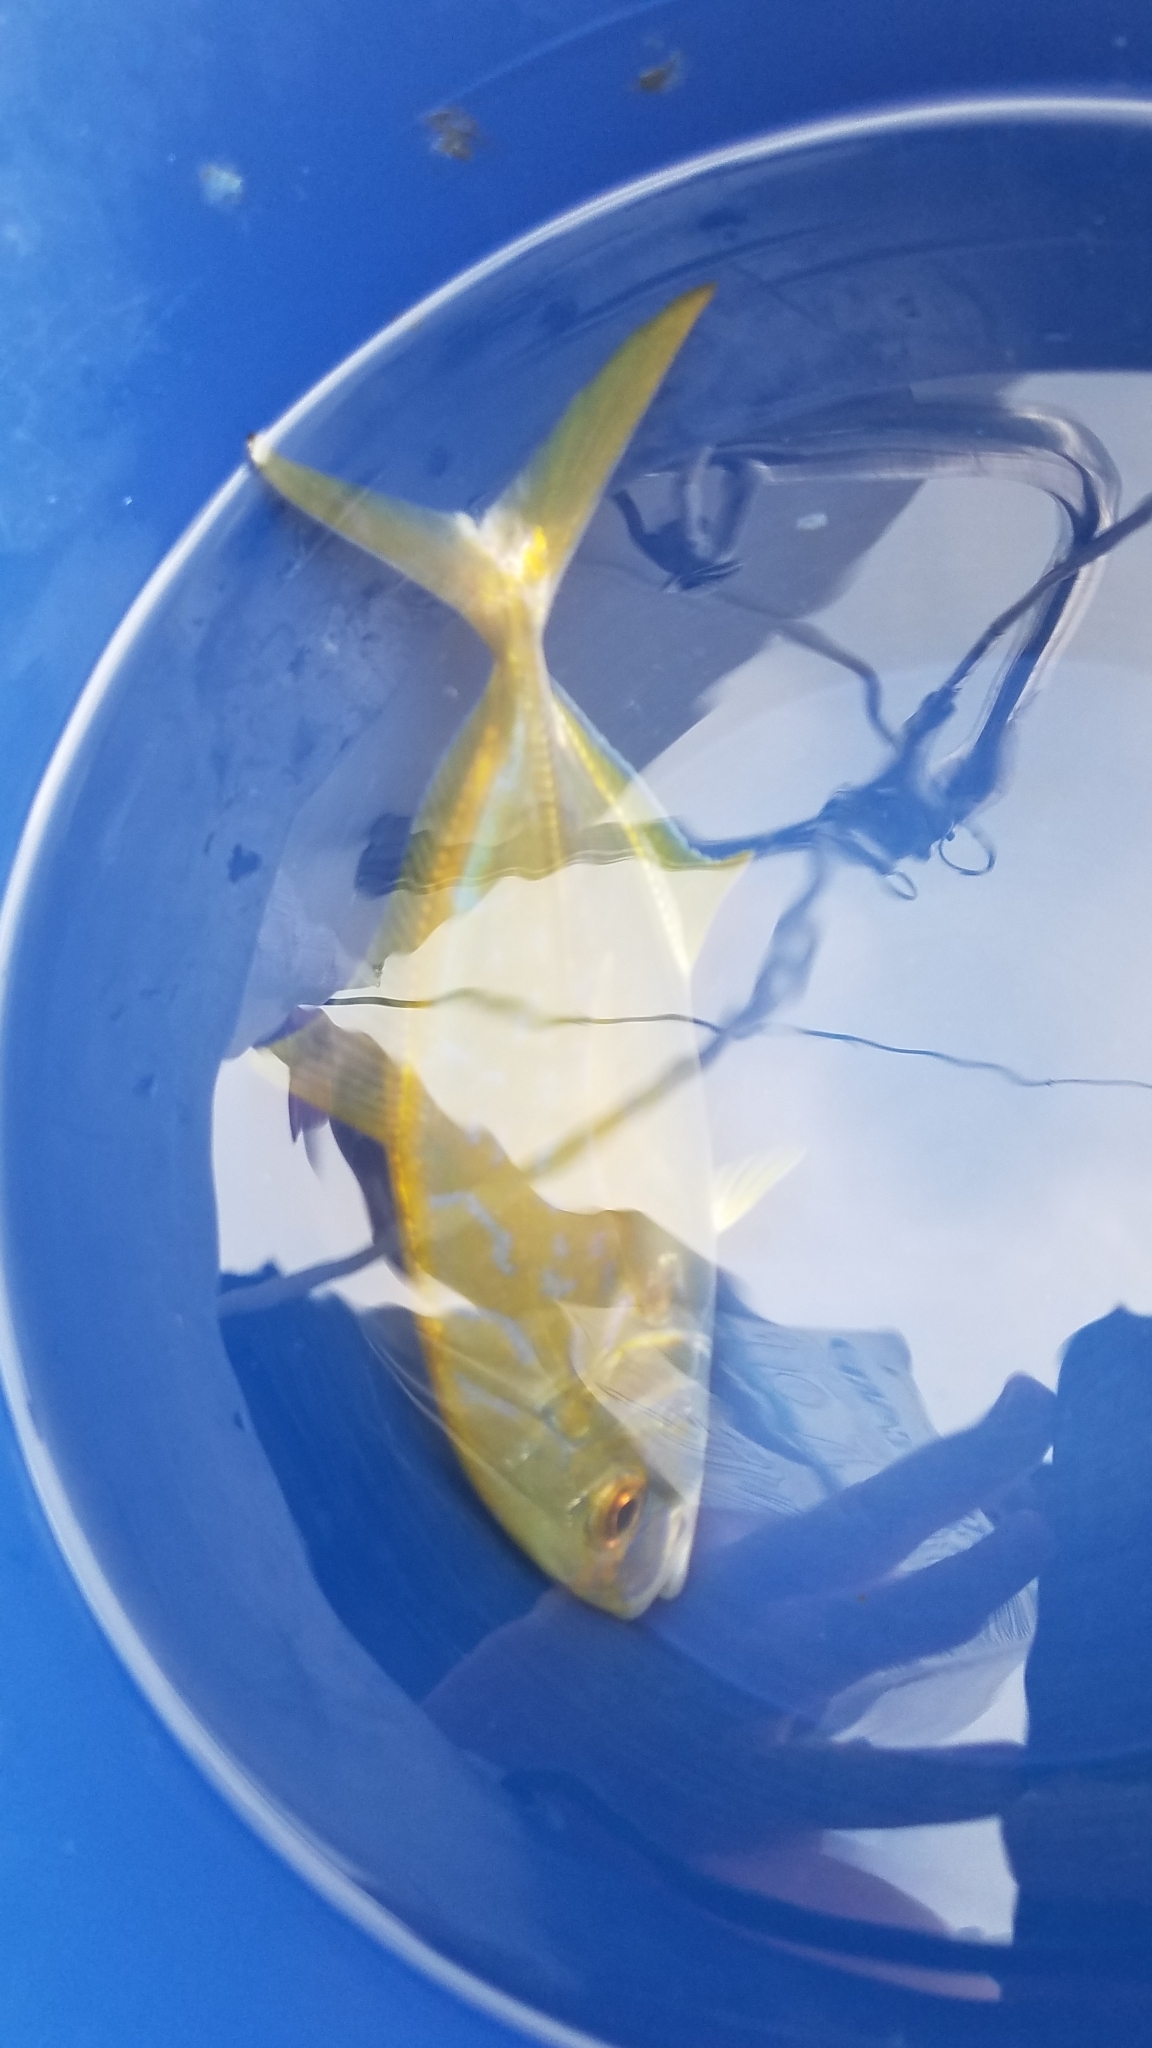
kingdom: Animalia
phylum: Chordata
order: Perciformes
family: Carangidae
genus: Carangoides
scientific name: Carangoides bartholomaei
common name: Yellow jack
